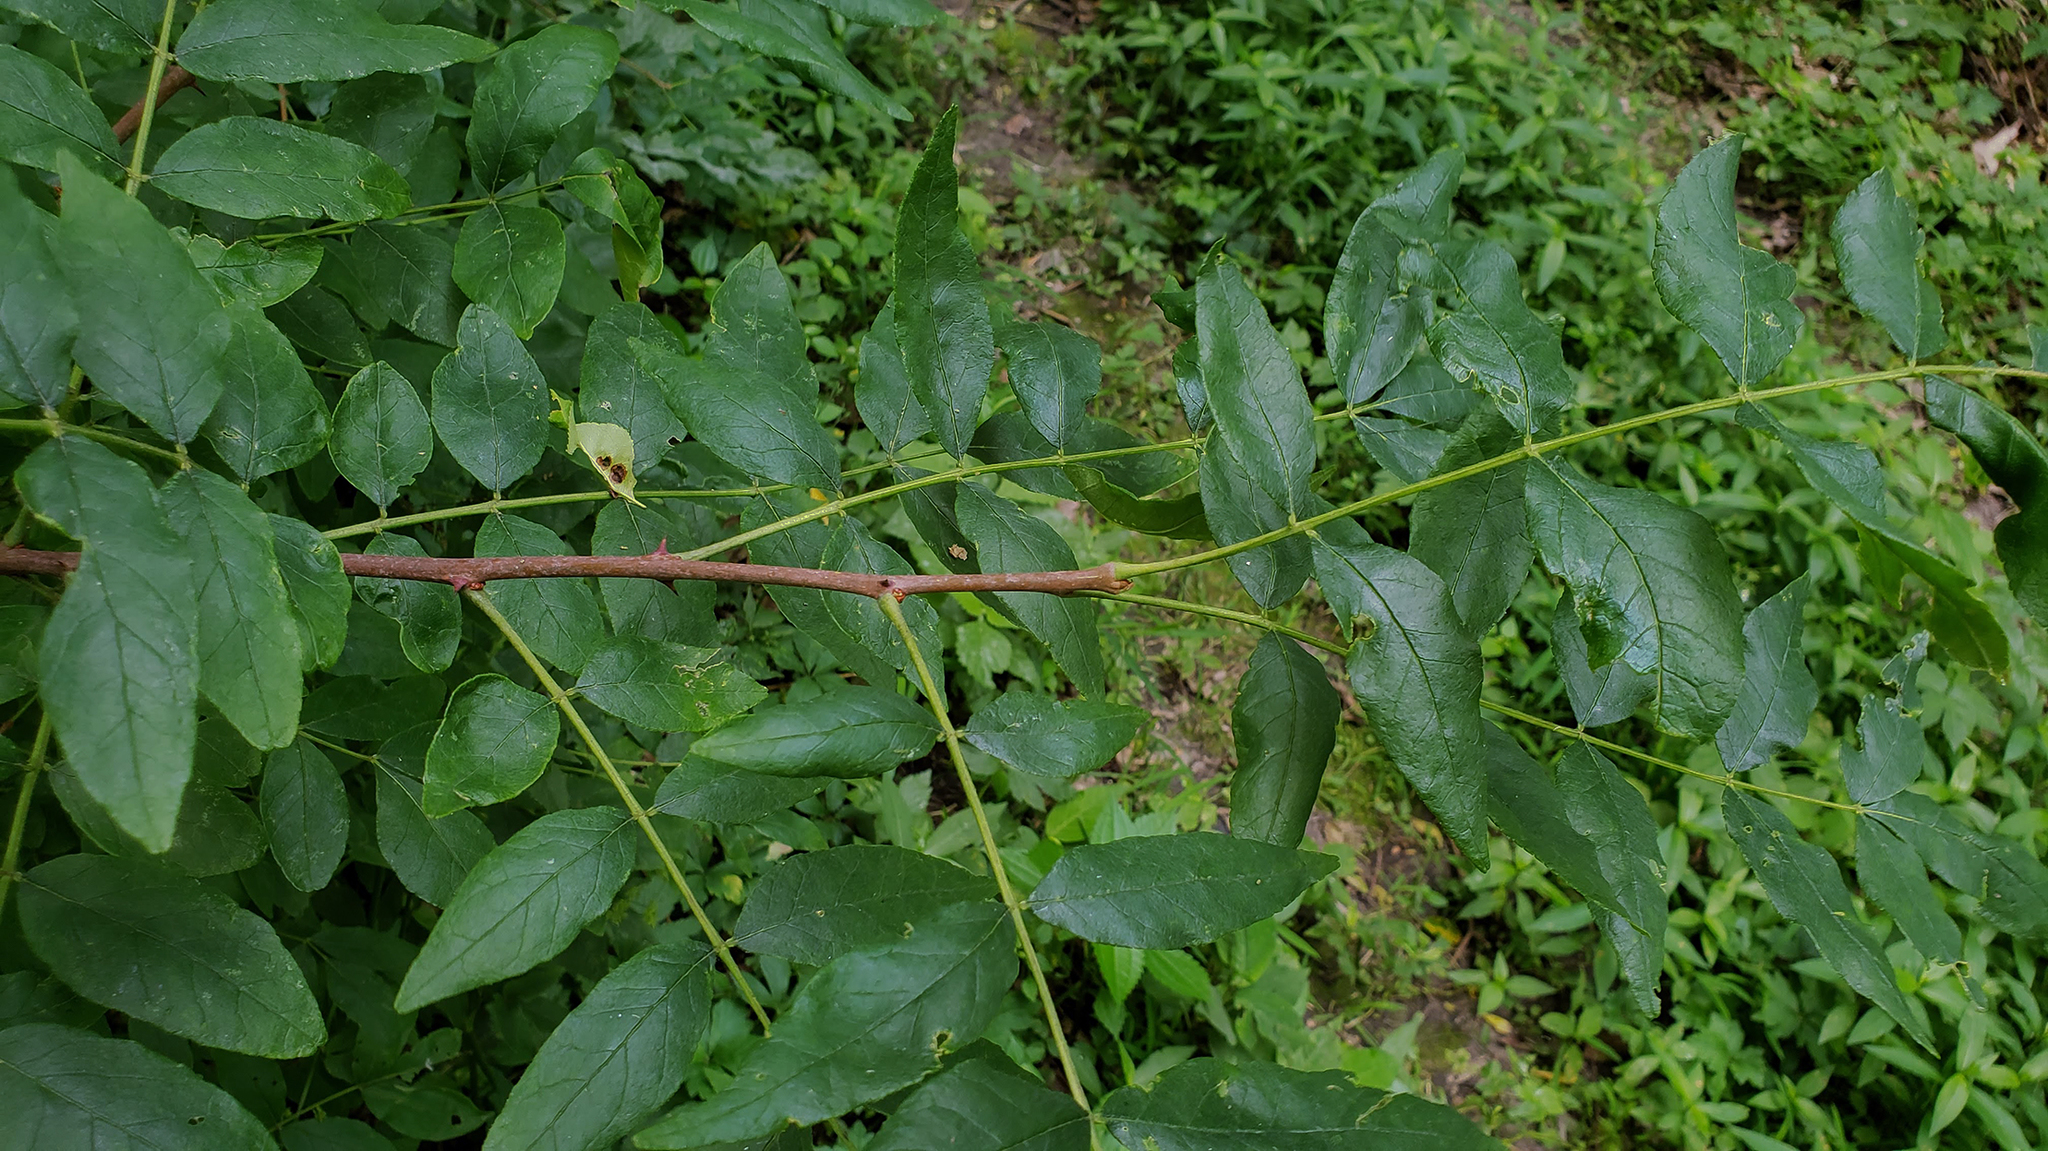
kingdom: Plantae
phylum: Tracheophyta
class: Magnoliopsida
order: Sapindales
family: Rutaceae
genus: Zanthoxylum
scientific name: Zanthoxylum americanum
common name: Northern prickly-ash
